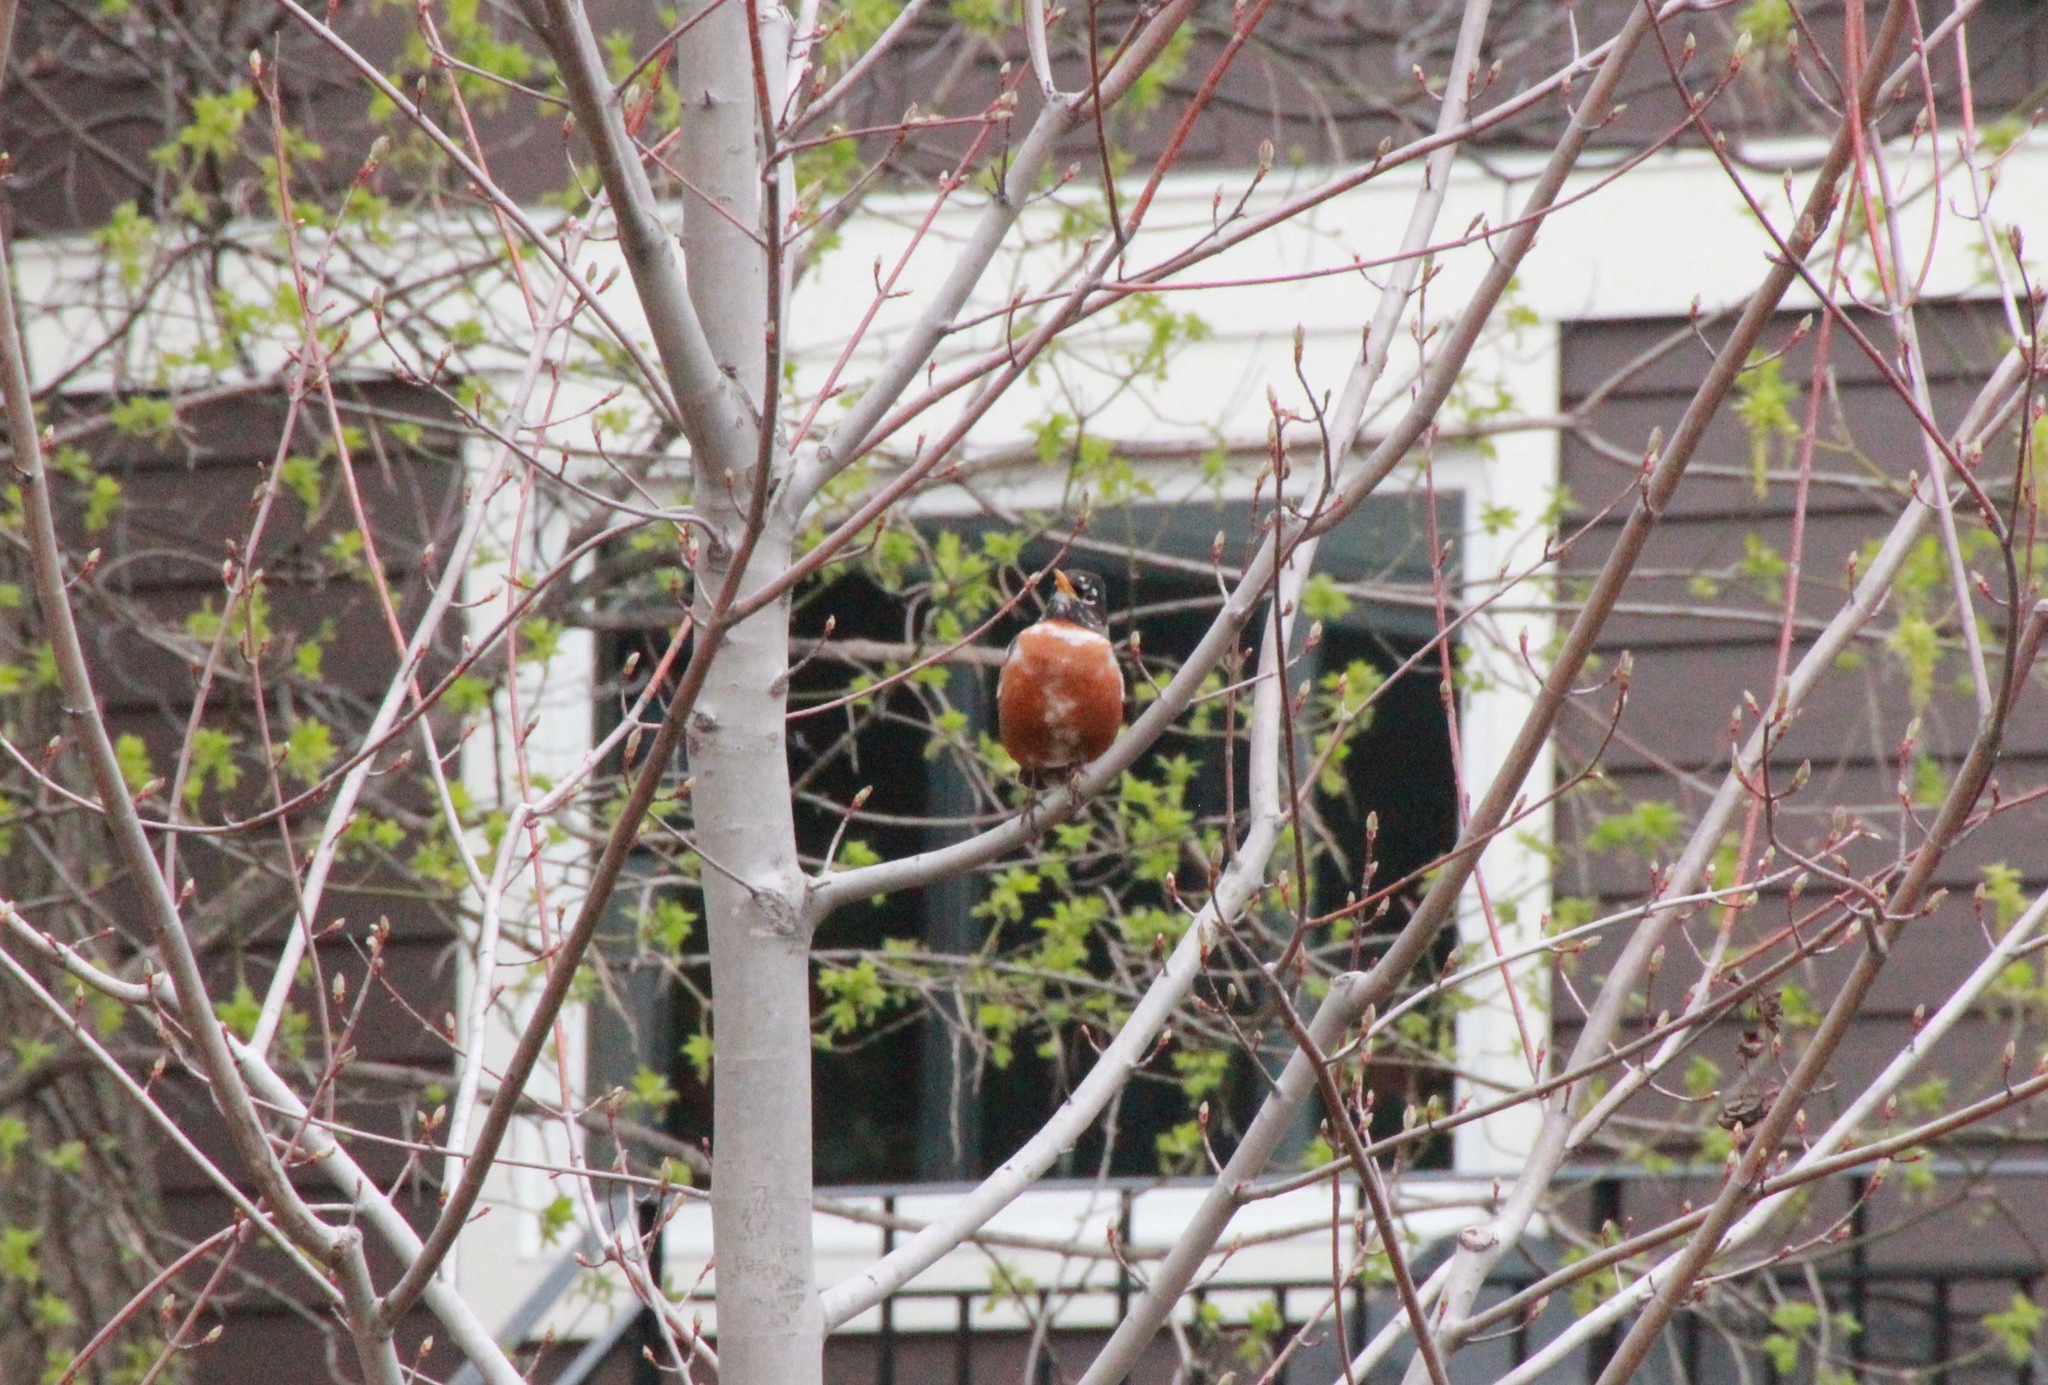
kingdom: Animalia
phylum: Chordata
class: Aves
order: Passeriformes
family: Turdidae
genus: Turdus
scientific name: Turdus migratorius
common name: American robin
